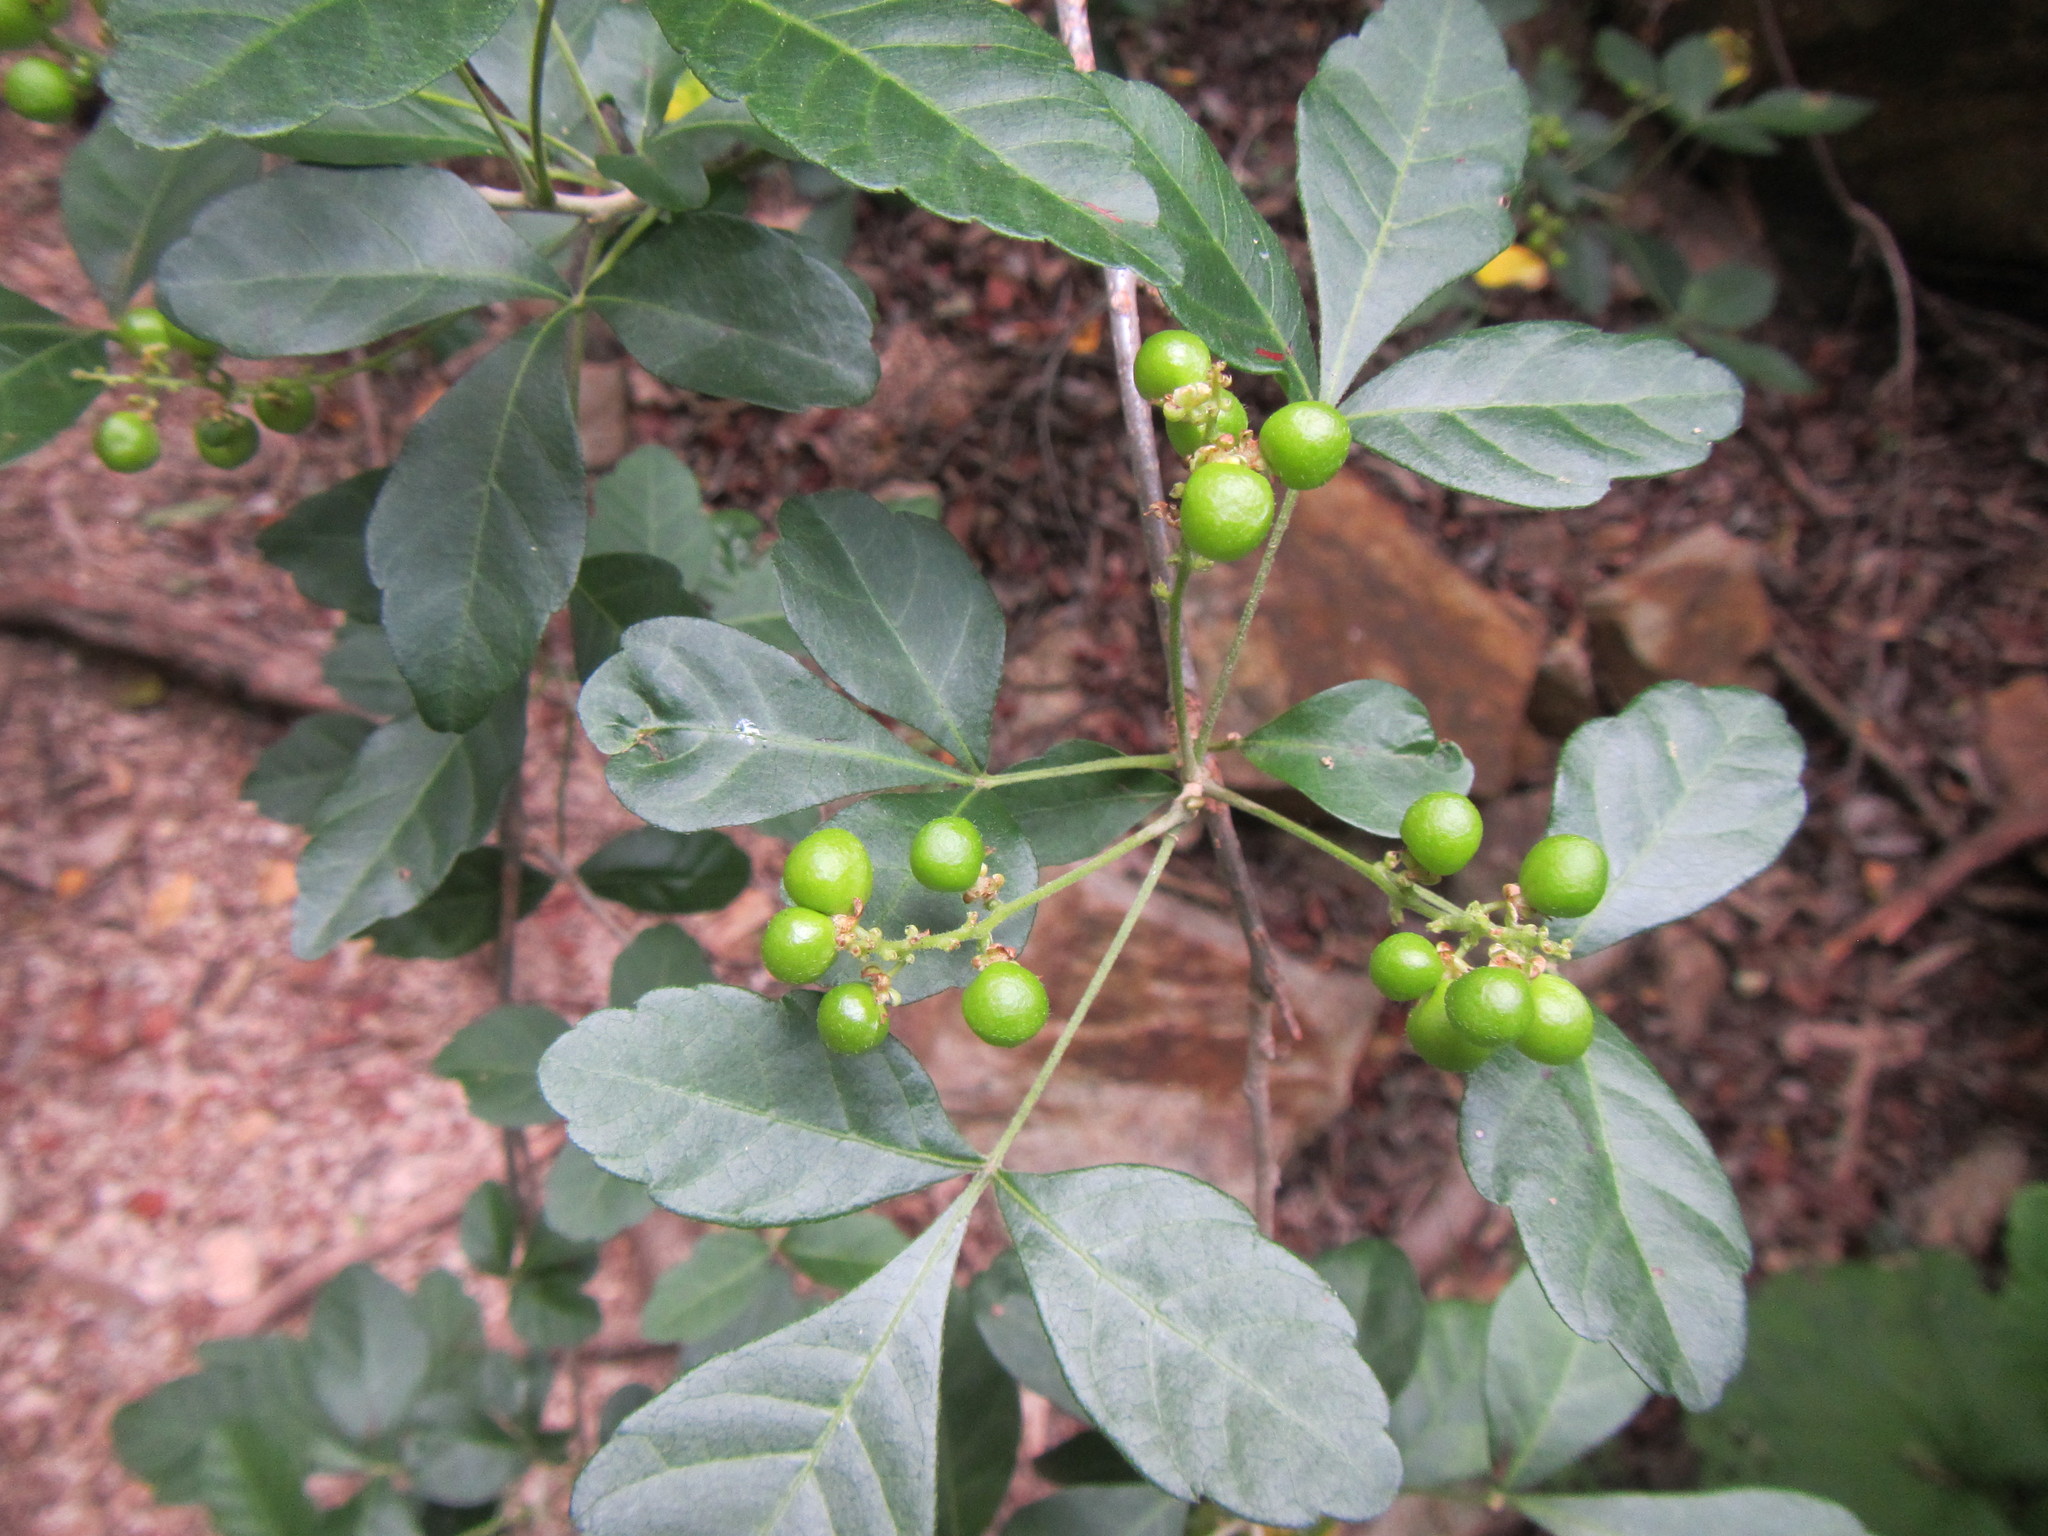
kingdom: Plantae
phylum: Tracheophyta
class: Magnoliopsida
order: Sapindales
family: Sapindaceae
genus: Allophylus
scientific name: Allophylus decipiens
